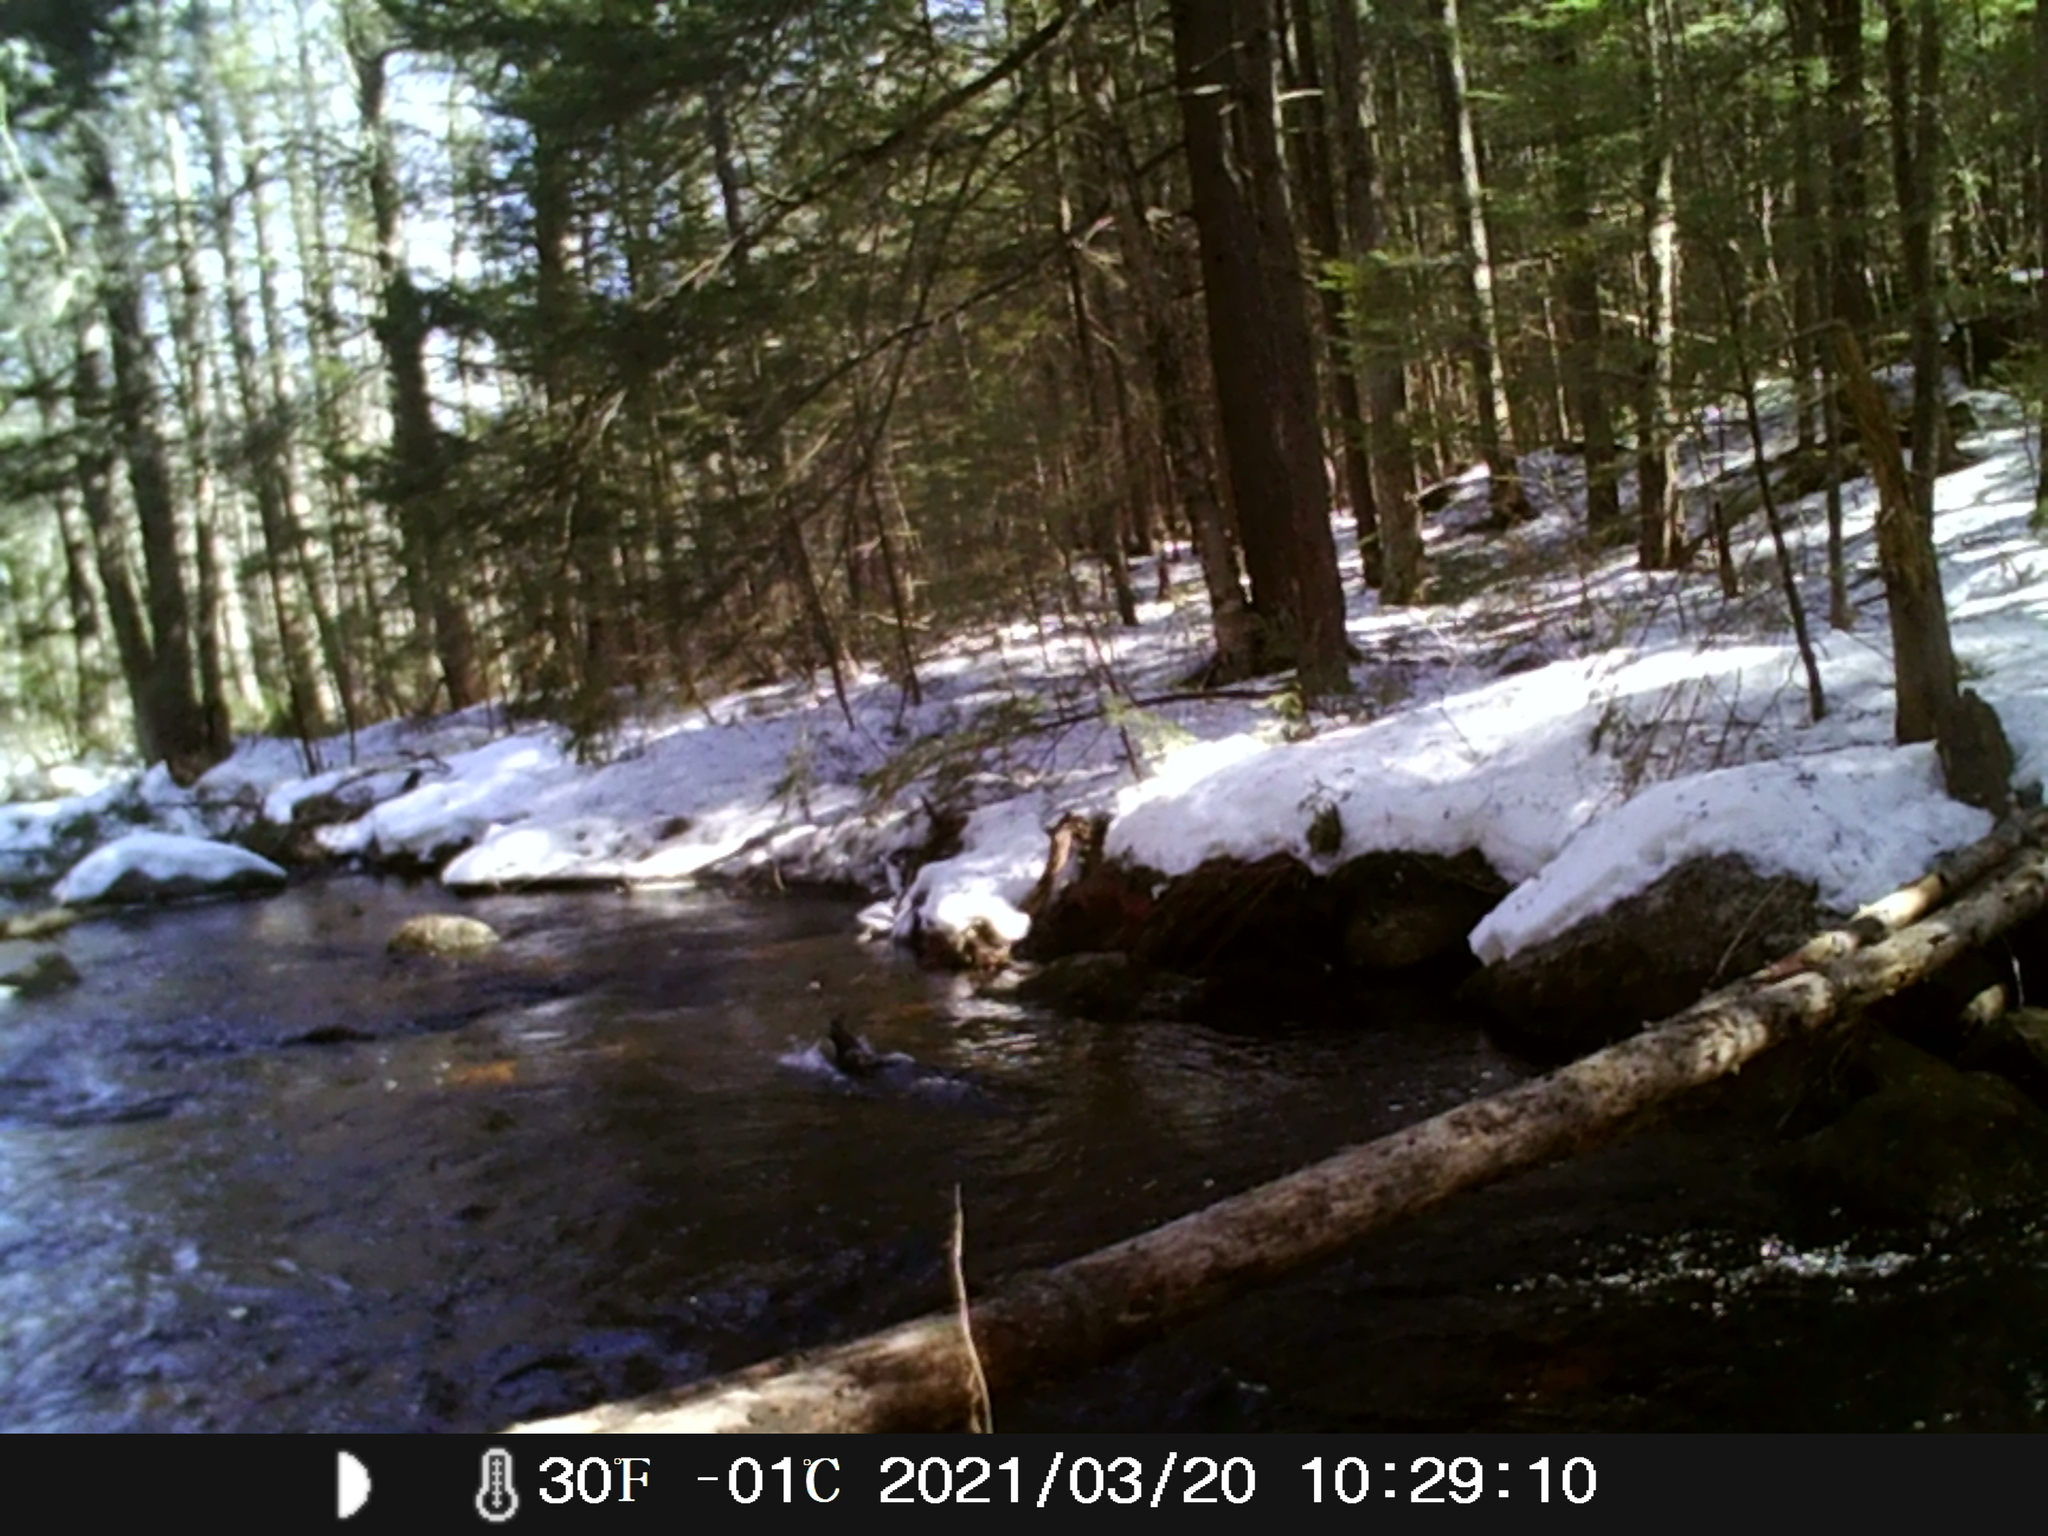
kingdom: Animalia
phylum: Chordata
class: Aves
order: Anseriformes
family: Anatidae
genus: Lophodytes
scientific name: Lophodytes cucullatus
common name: Hooded merganser
